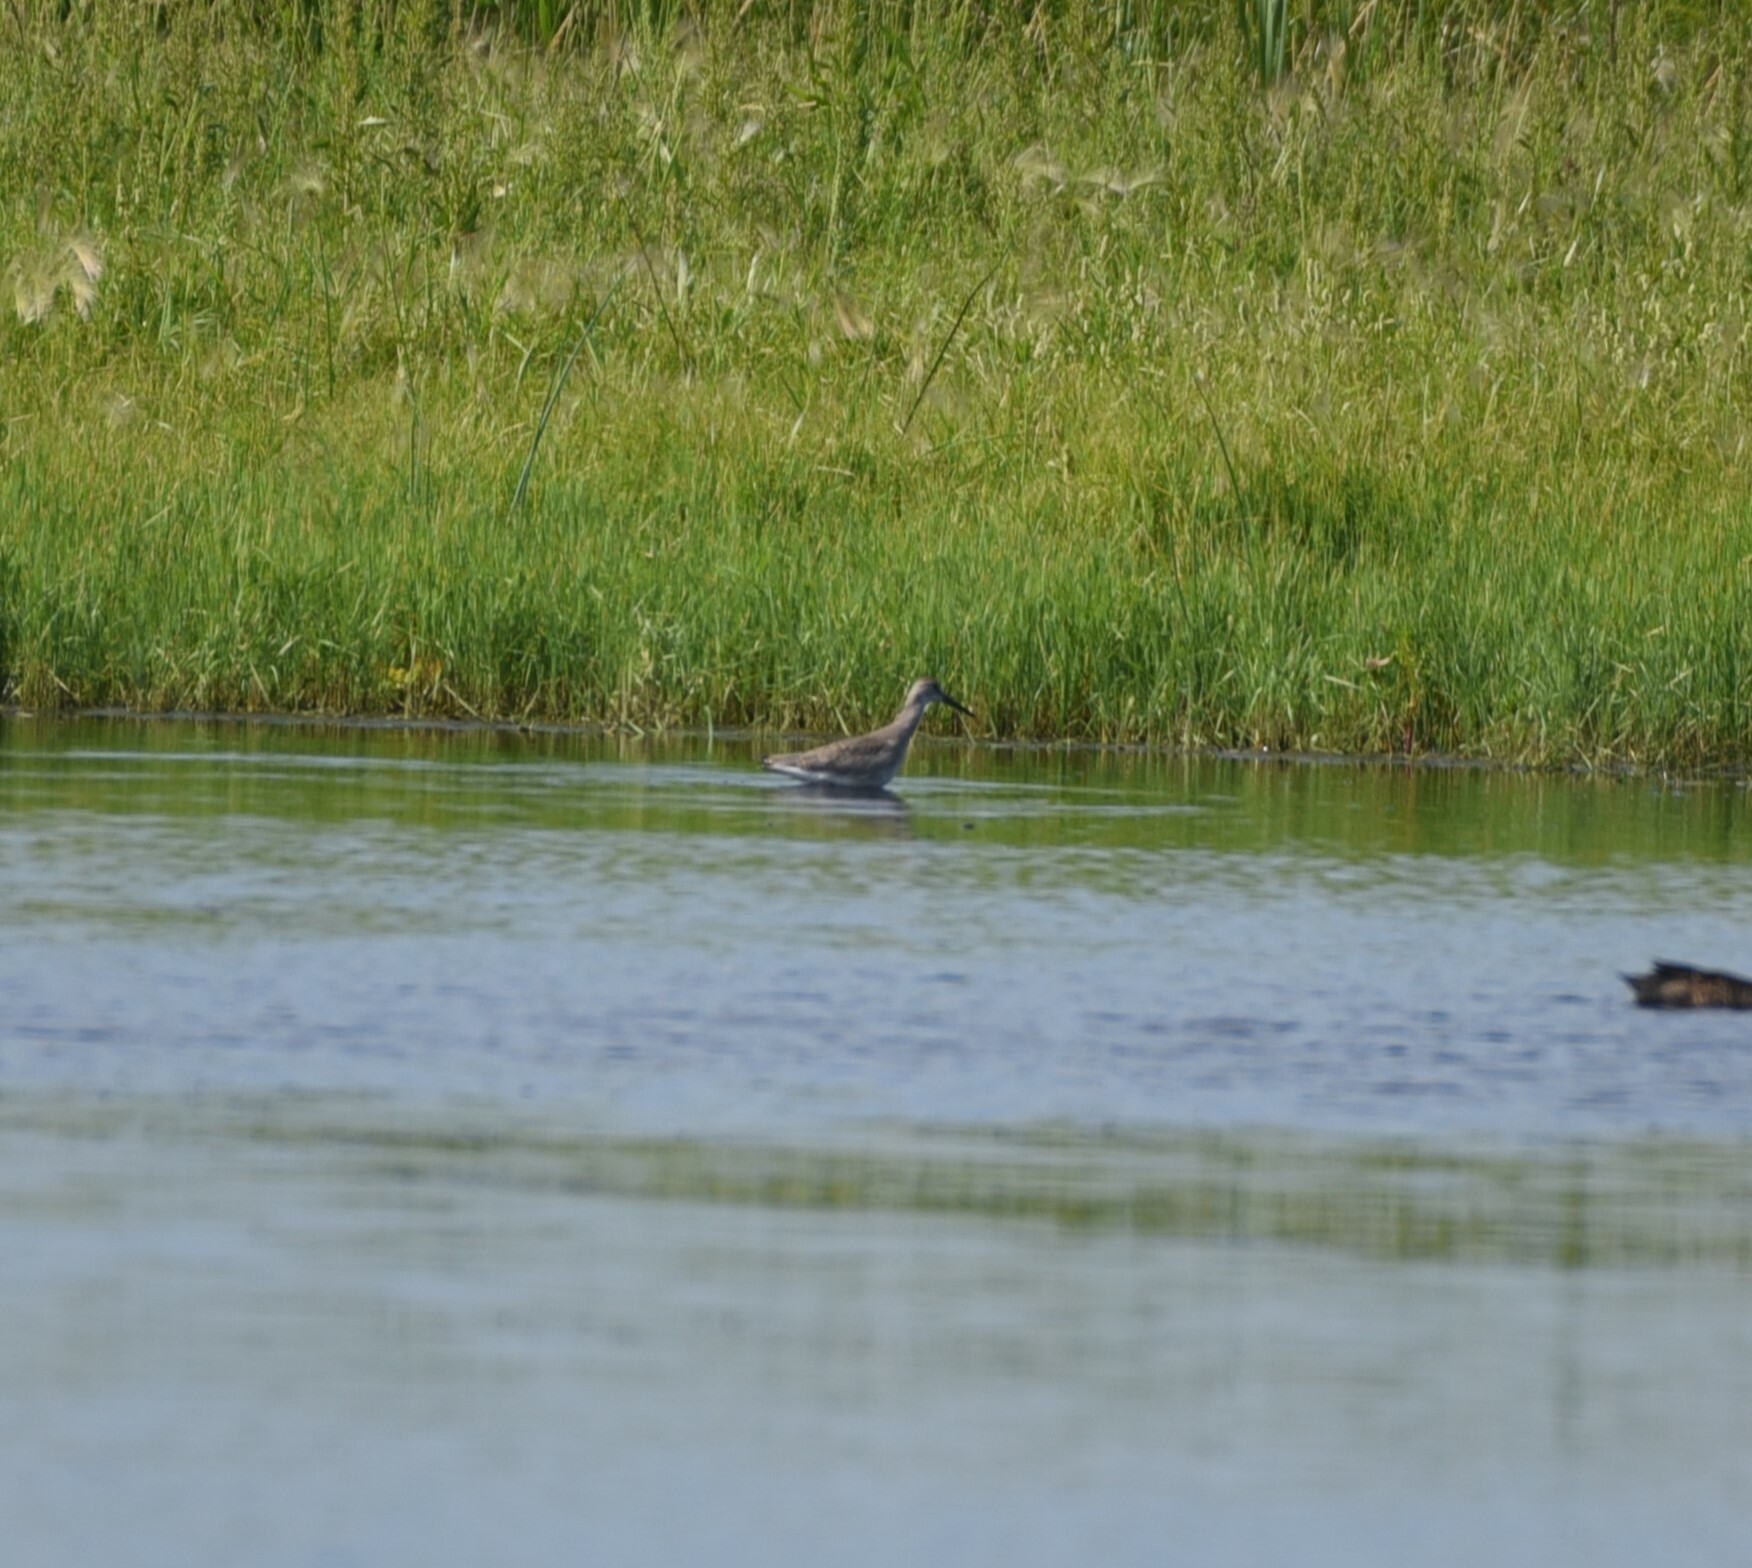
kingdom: Animalia
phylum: Chordata
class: Aves
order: Charadriiformes
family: Scolopacidae
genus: Tringa
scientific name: Tringa semipalmata
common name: Willet
